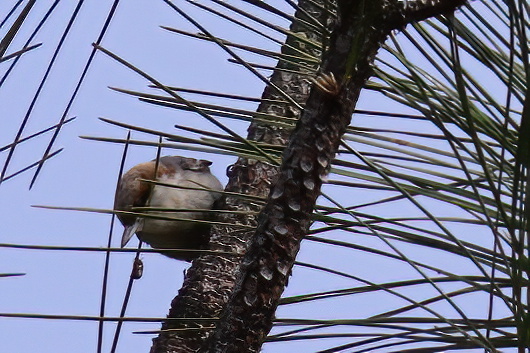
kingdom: Animalia
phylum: Chordata
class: Aves
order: Passeriformes
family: Sittidae
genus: Sitta
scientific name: Sitta pusilla
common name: Brown-headed nuthatch
